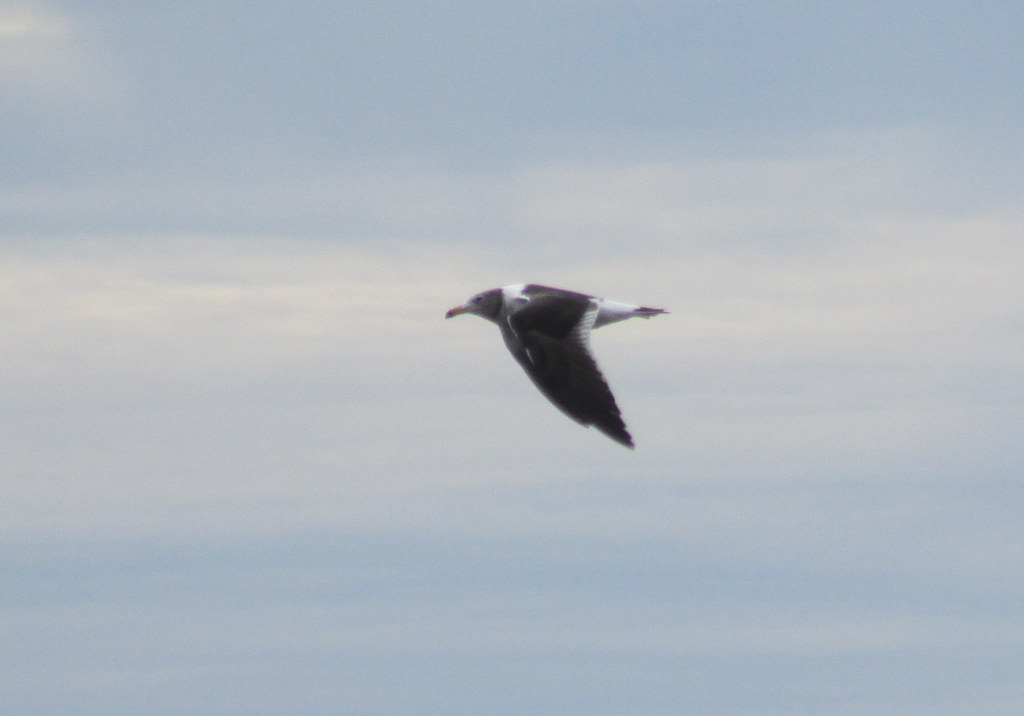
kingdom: Animalia
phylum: Chordata
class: Aves
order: Charadriiformes
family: Laridae
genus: Larus
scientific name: Larus atlanticus
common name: Olrog's gull
